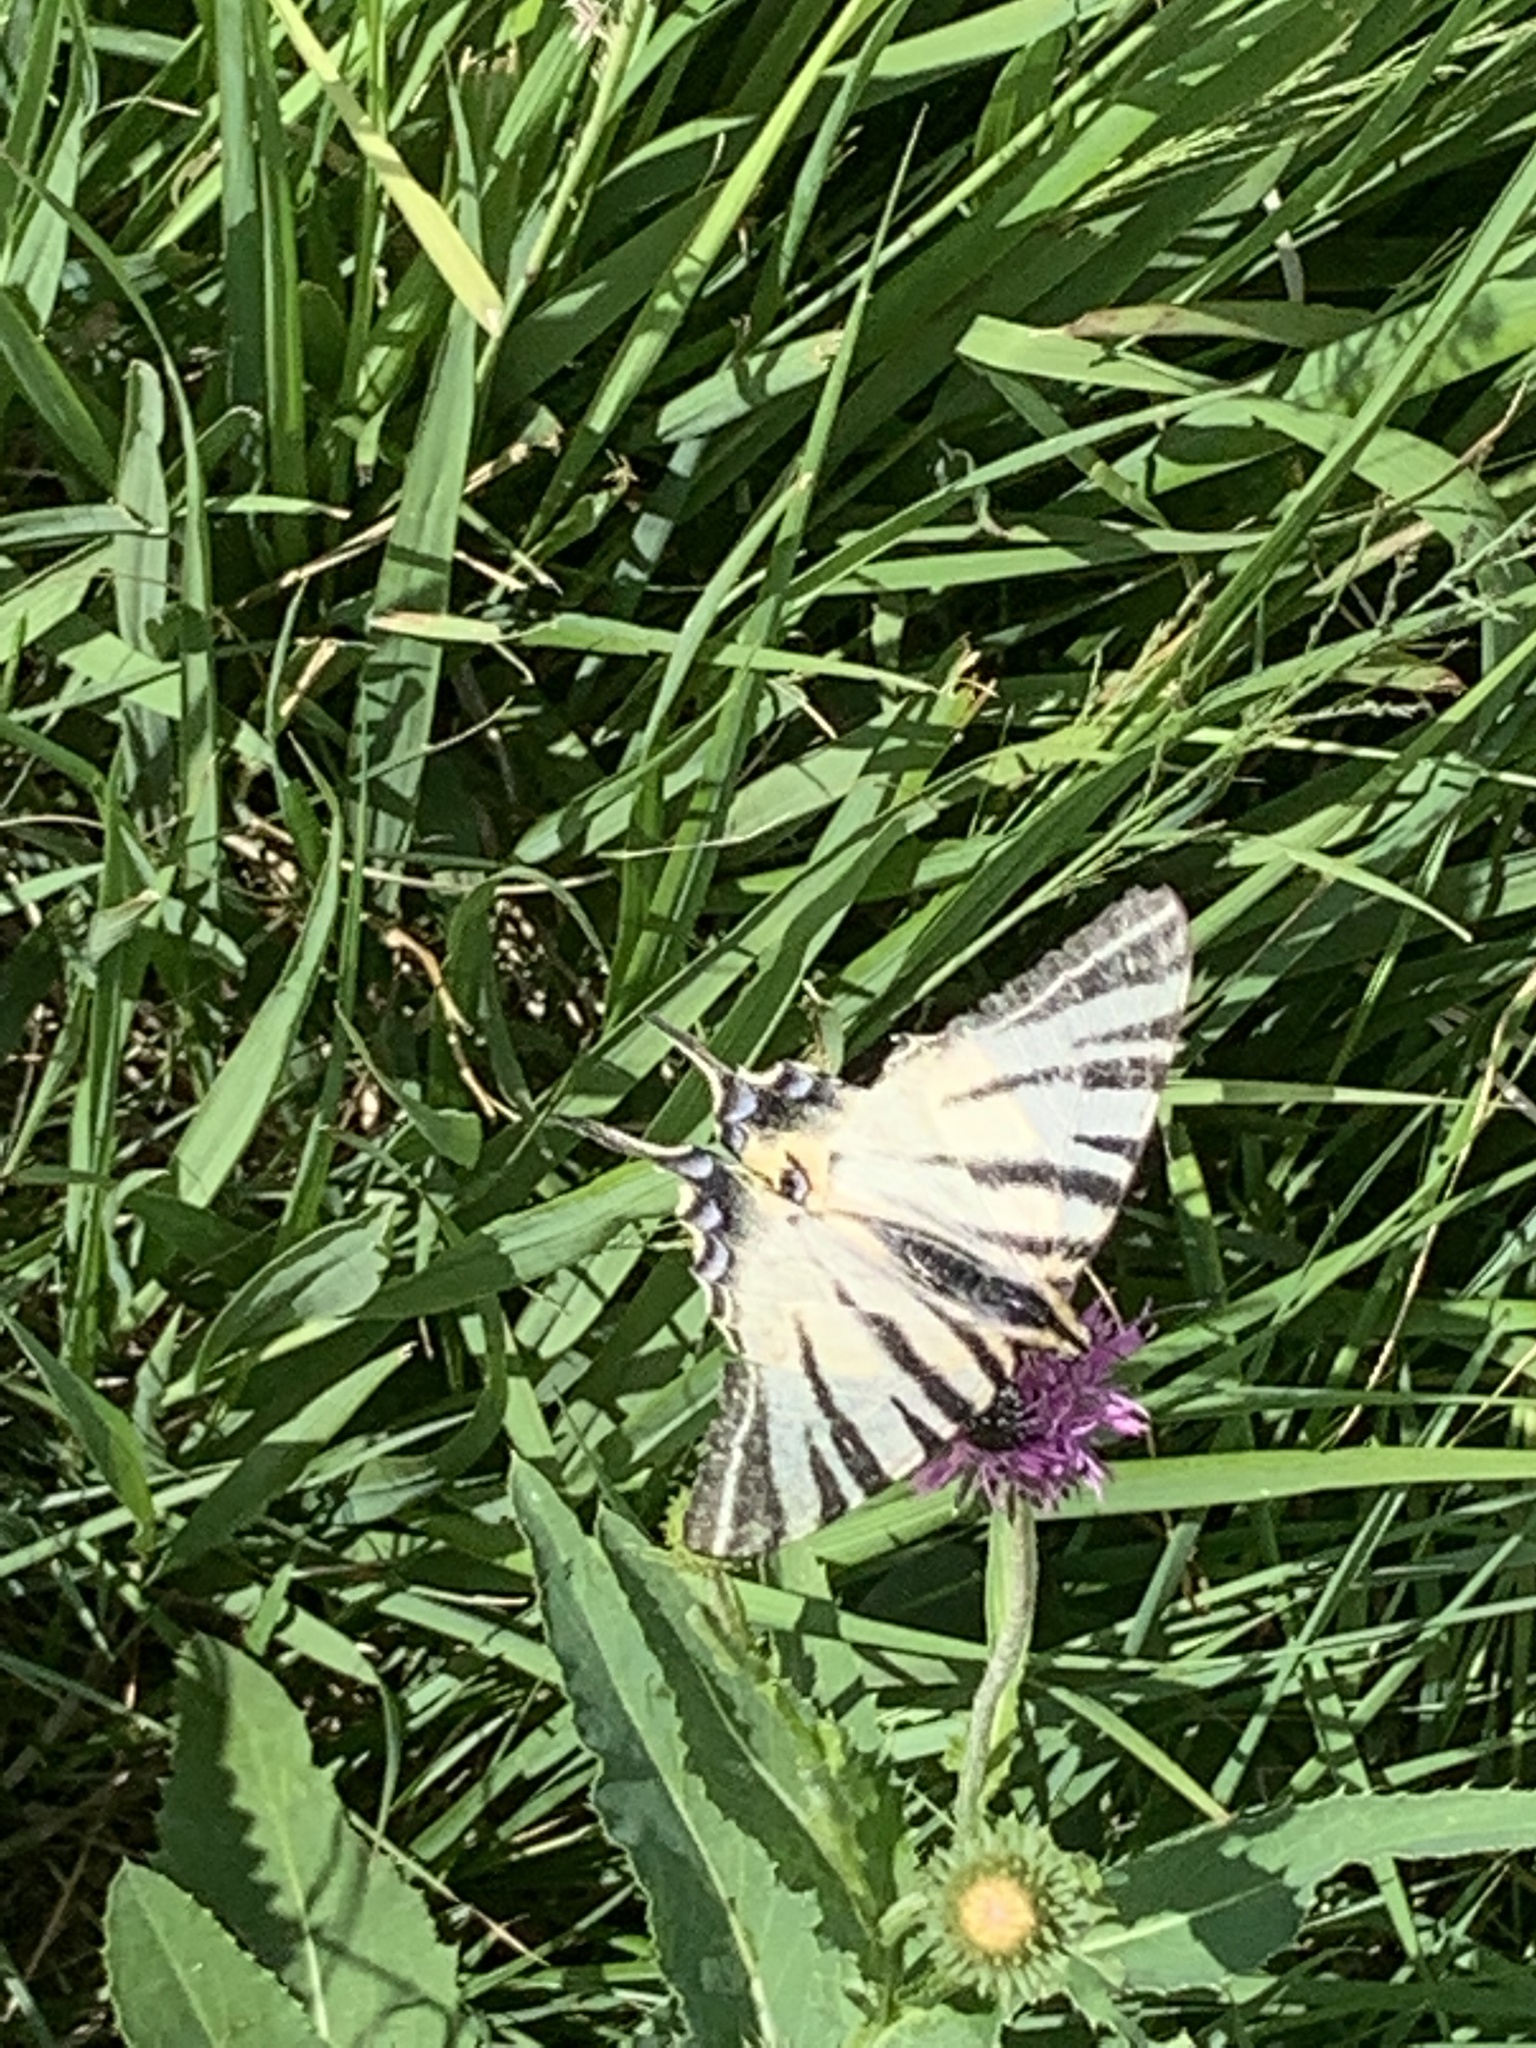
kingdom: Animalia
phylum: Arthropoda
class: Insecta
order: Lepidoptera
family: Papilionidae
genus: Iphiclides
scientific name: Iphiclides podalirius
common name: Scarce swallowtail
